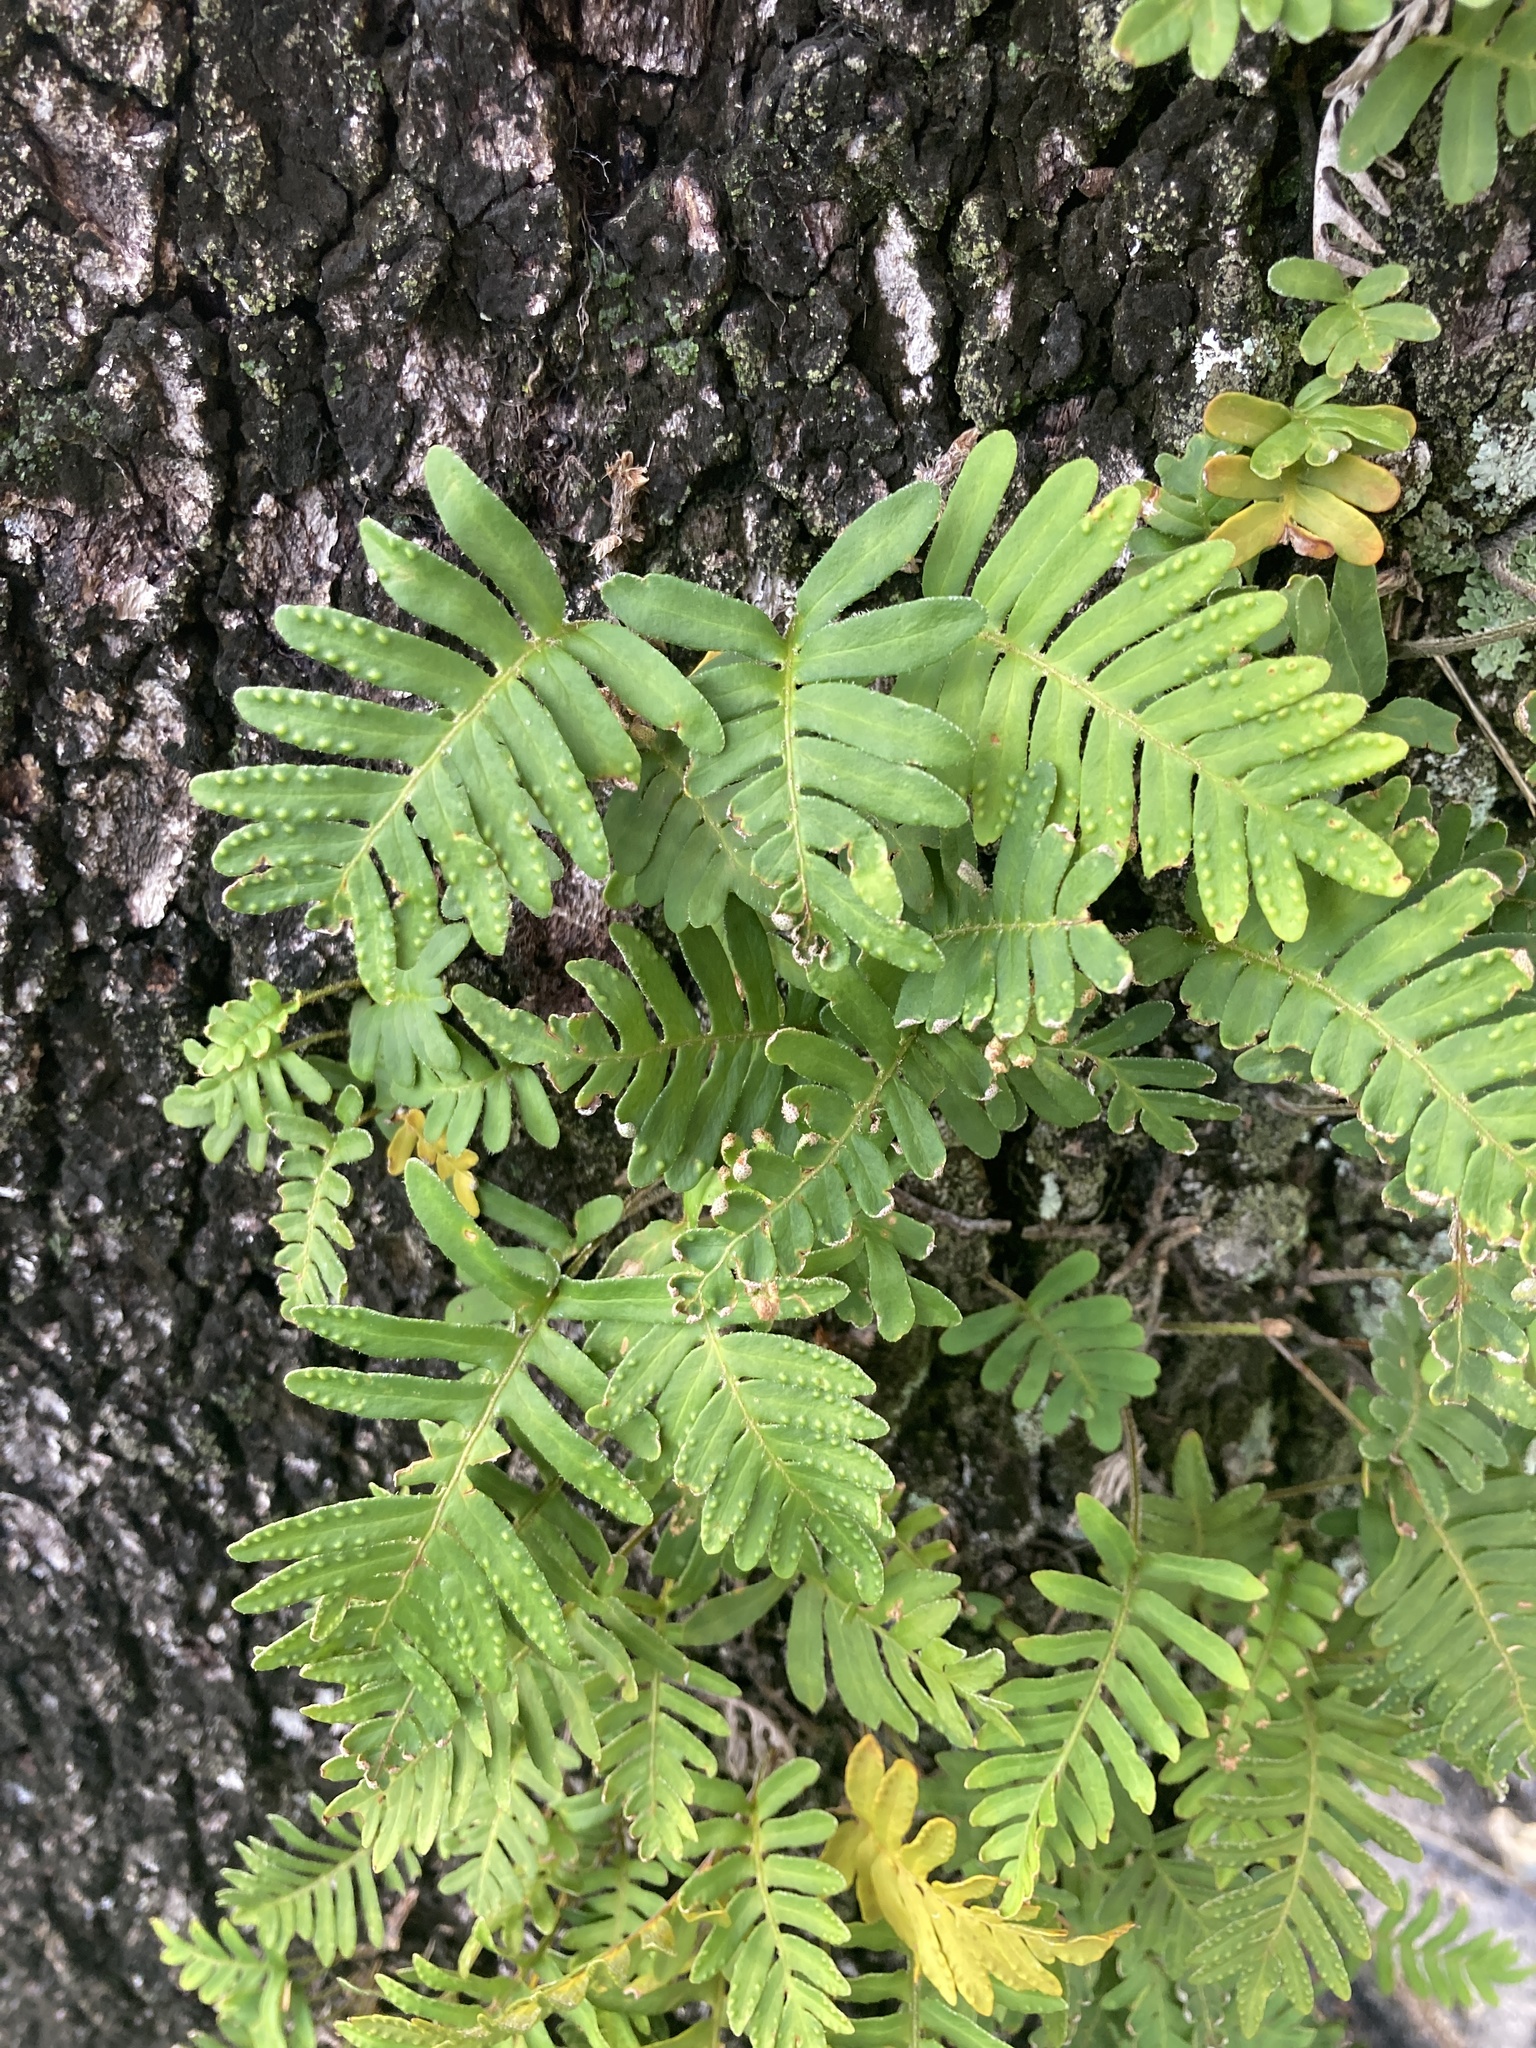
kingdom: Plantae
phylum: Tracheophyta
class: Polypodiopsida
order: Polypodiales
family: Polypodiaceae
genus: Pleopeltis
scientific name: Pleopeltis michauxiana
